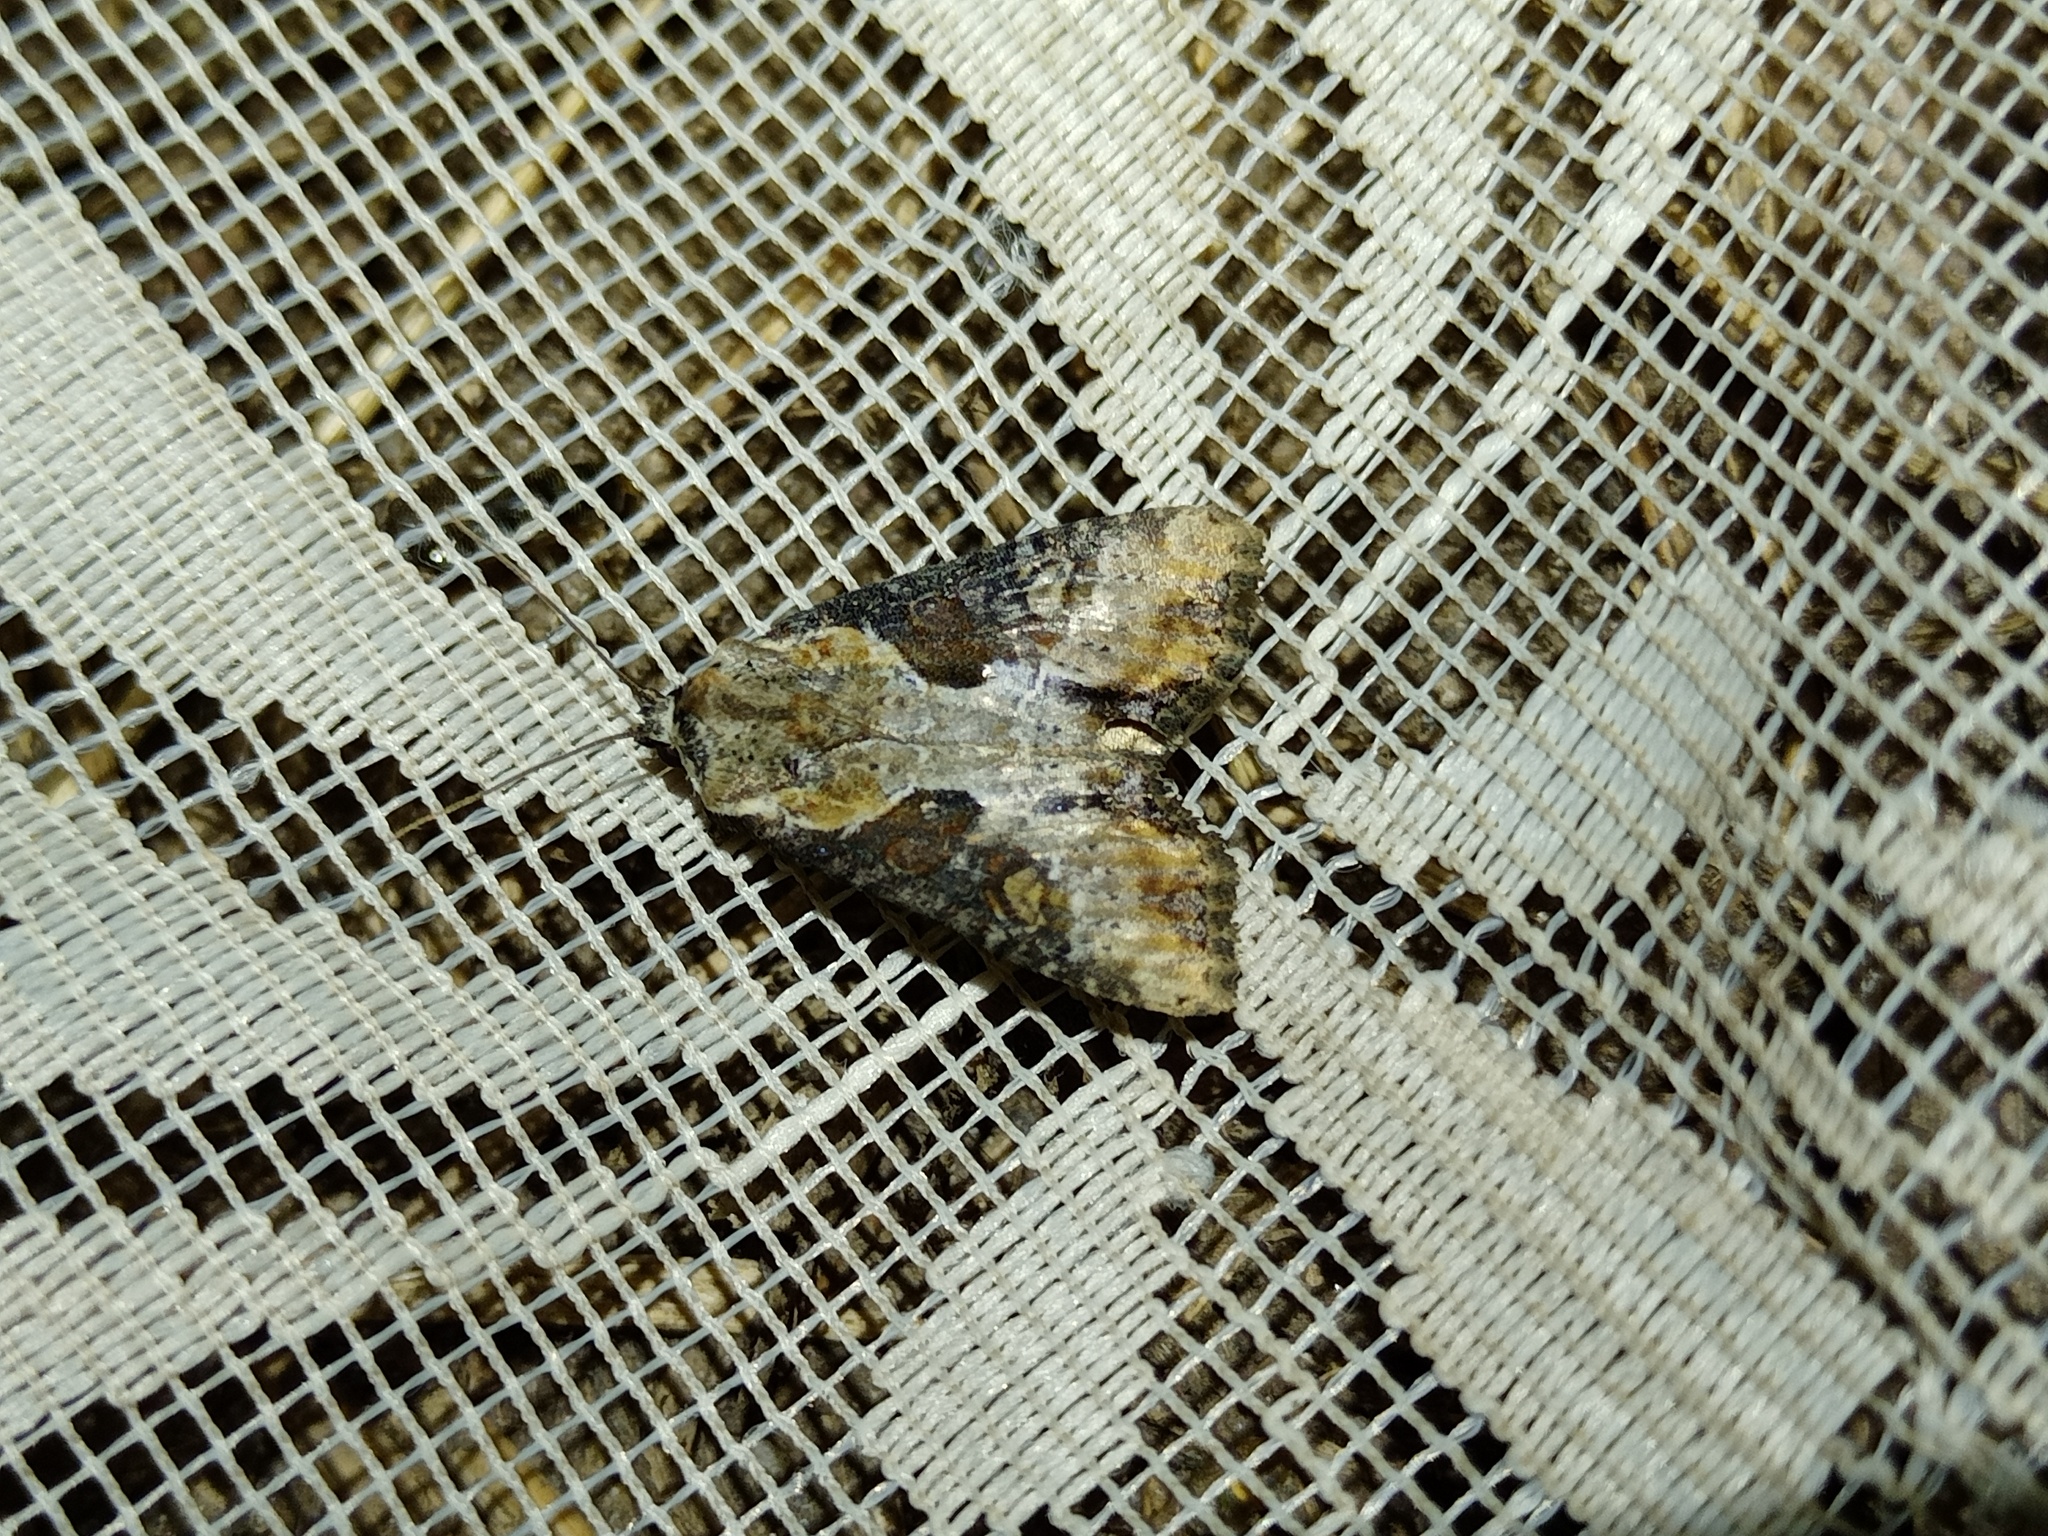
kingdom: Animalia
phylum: Arthropoda
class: Insecta
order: Lepidoptera
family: Noctuidae
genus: Lateroligia
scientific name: Lateroligia ophiogramma
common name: Double lobed
